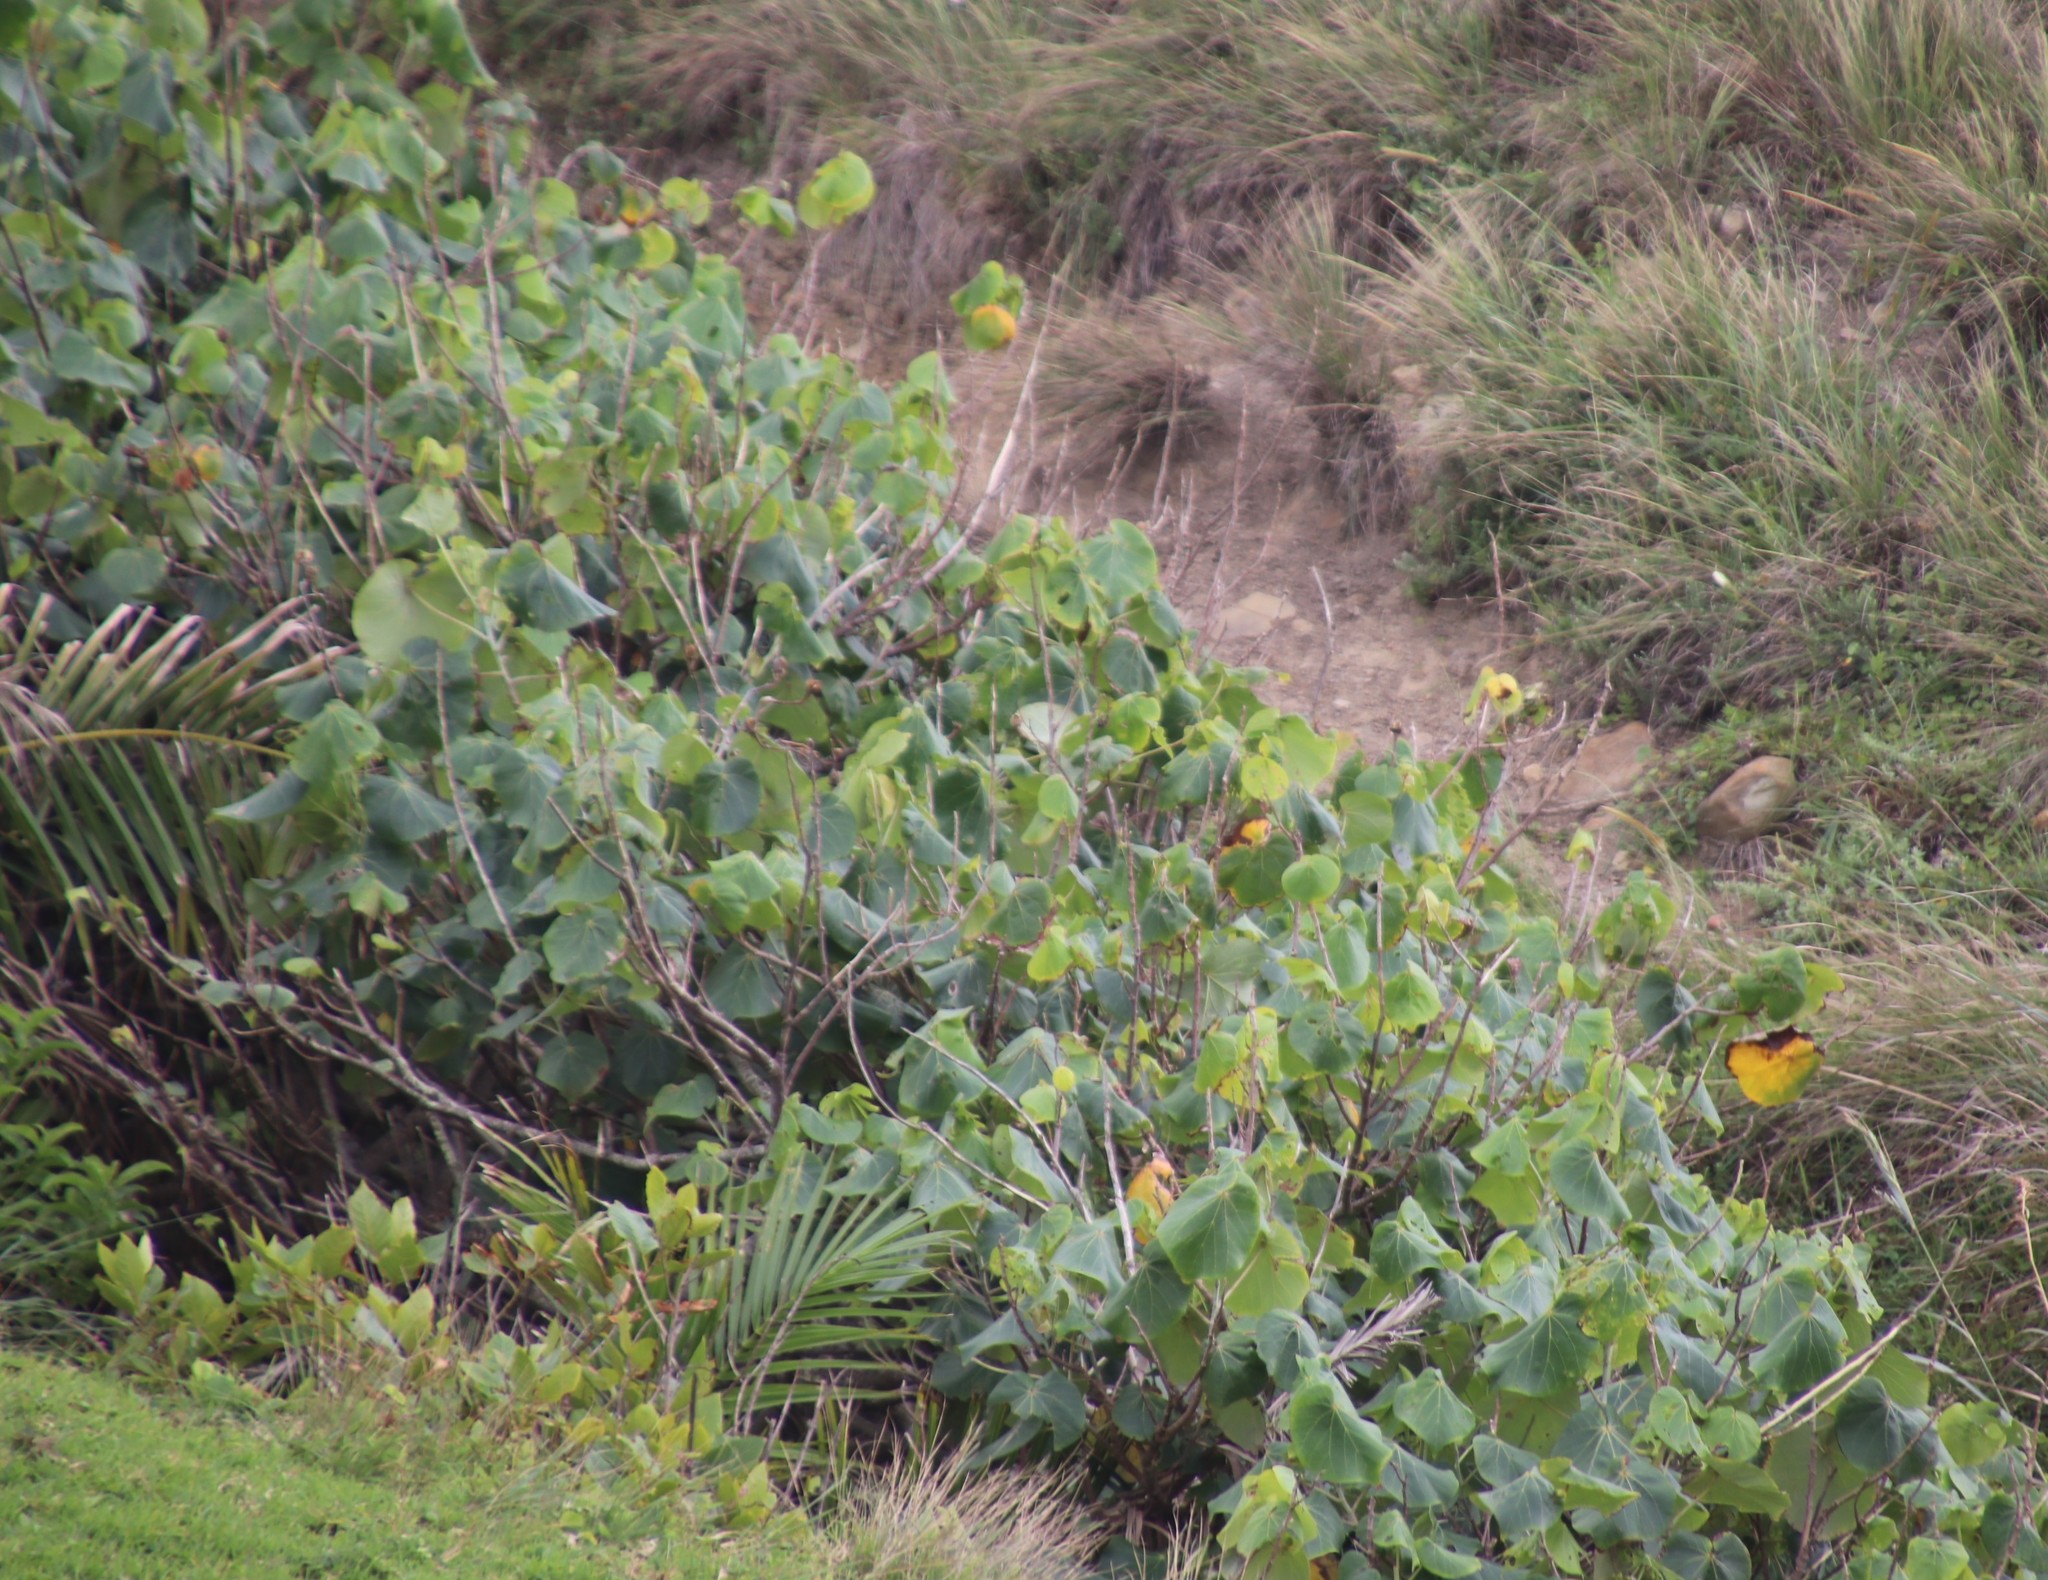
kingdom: Plantae
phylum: Tracheophyta
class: Magnoliopsida
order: Malvales
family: Malvaceae
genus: Talipariti
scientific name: Talipariti tiliaceum
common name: Sea hibiscus
